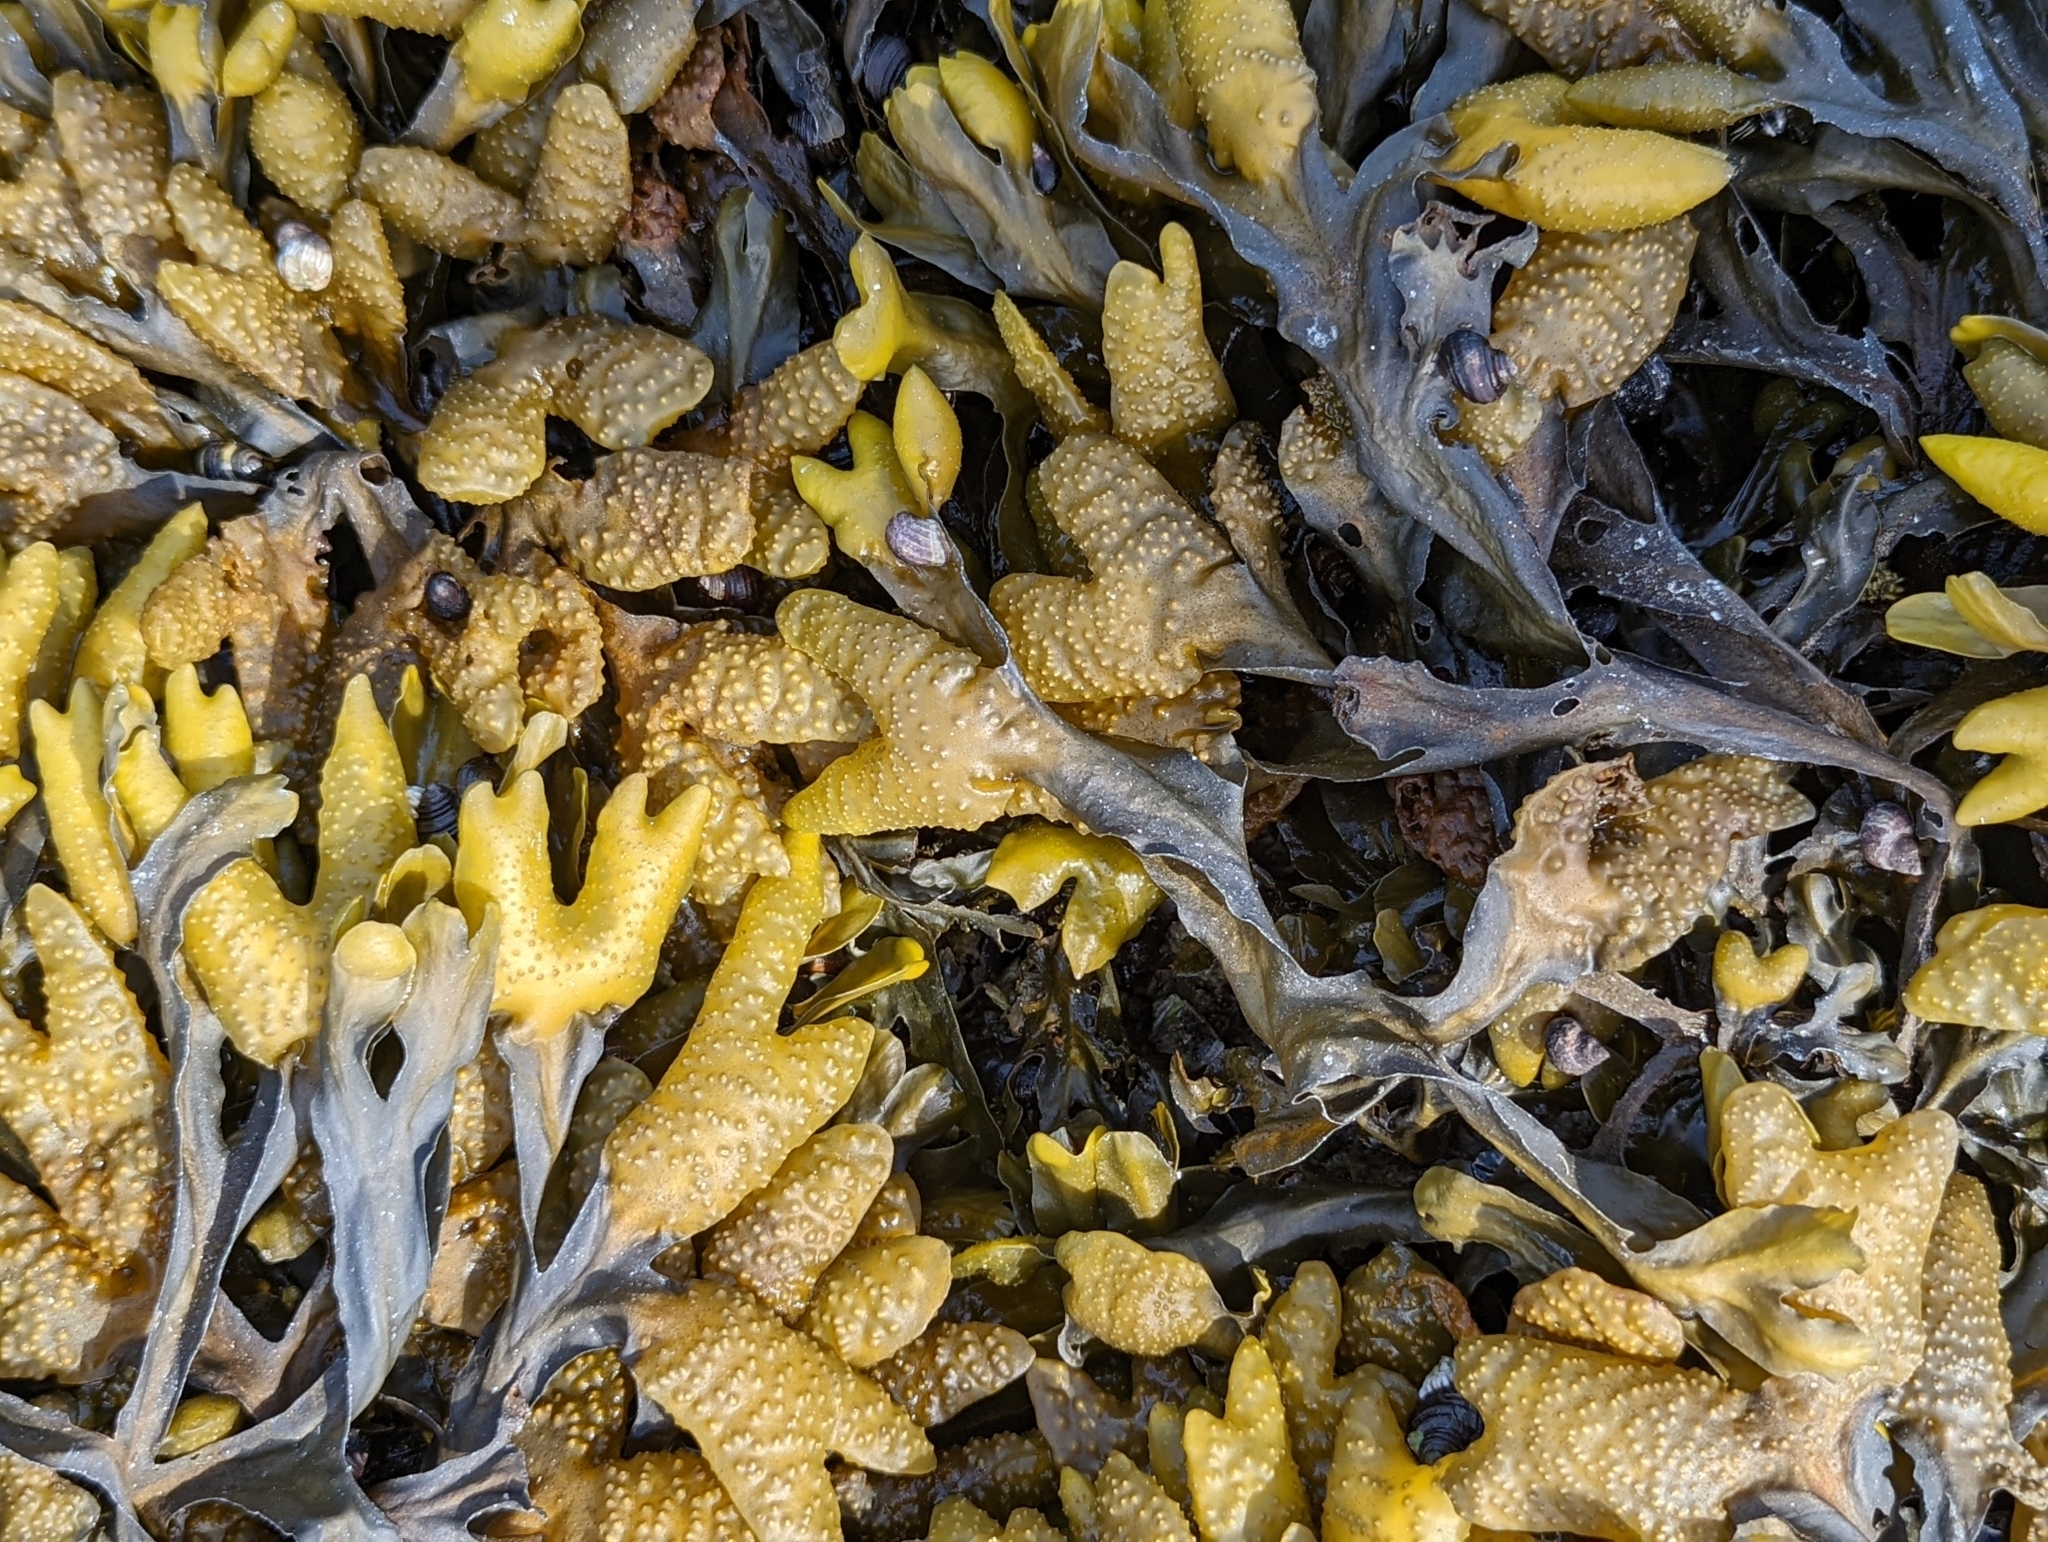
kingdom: Chromista
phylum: Ochrophyta
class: Phaeophyceae
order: Fucales
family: Fucaceae
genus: Fucus
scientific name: Fucus distichus
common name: Rockweed
